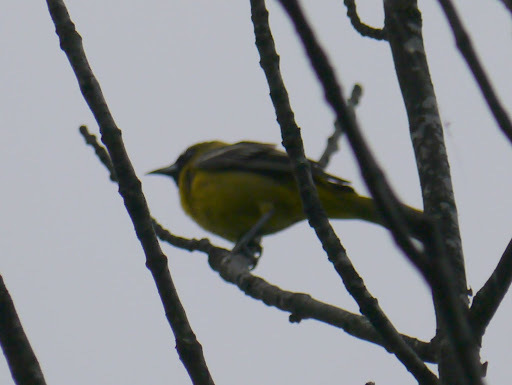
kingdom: Animalia
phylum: Chordata
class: Aves
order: Passeriformes
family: Icteridae
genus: Icterus
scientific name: Icterus spurius
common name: Orchard oriole
